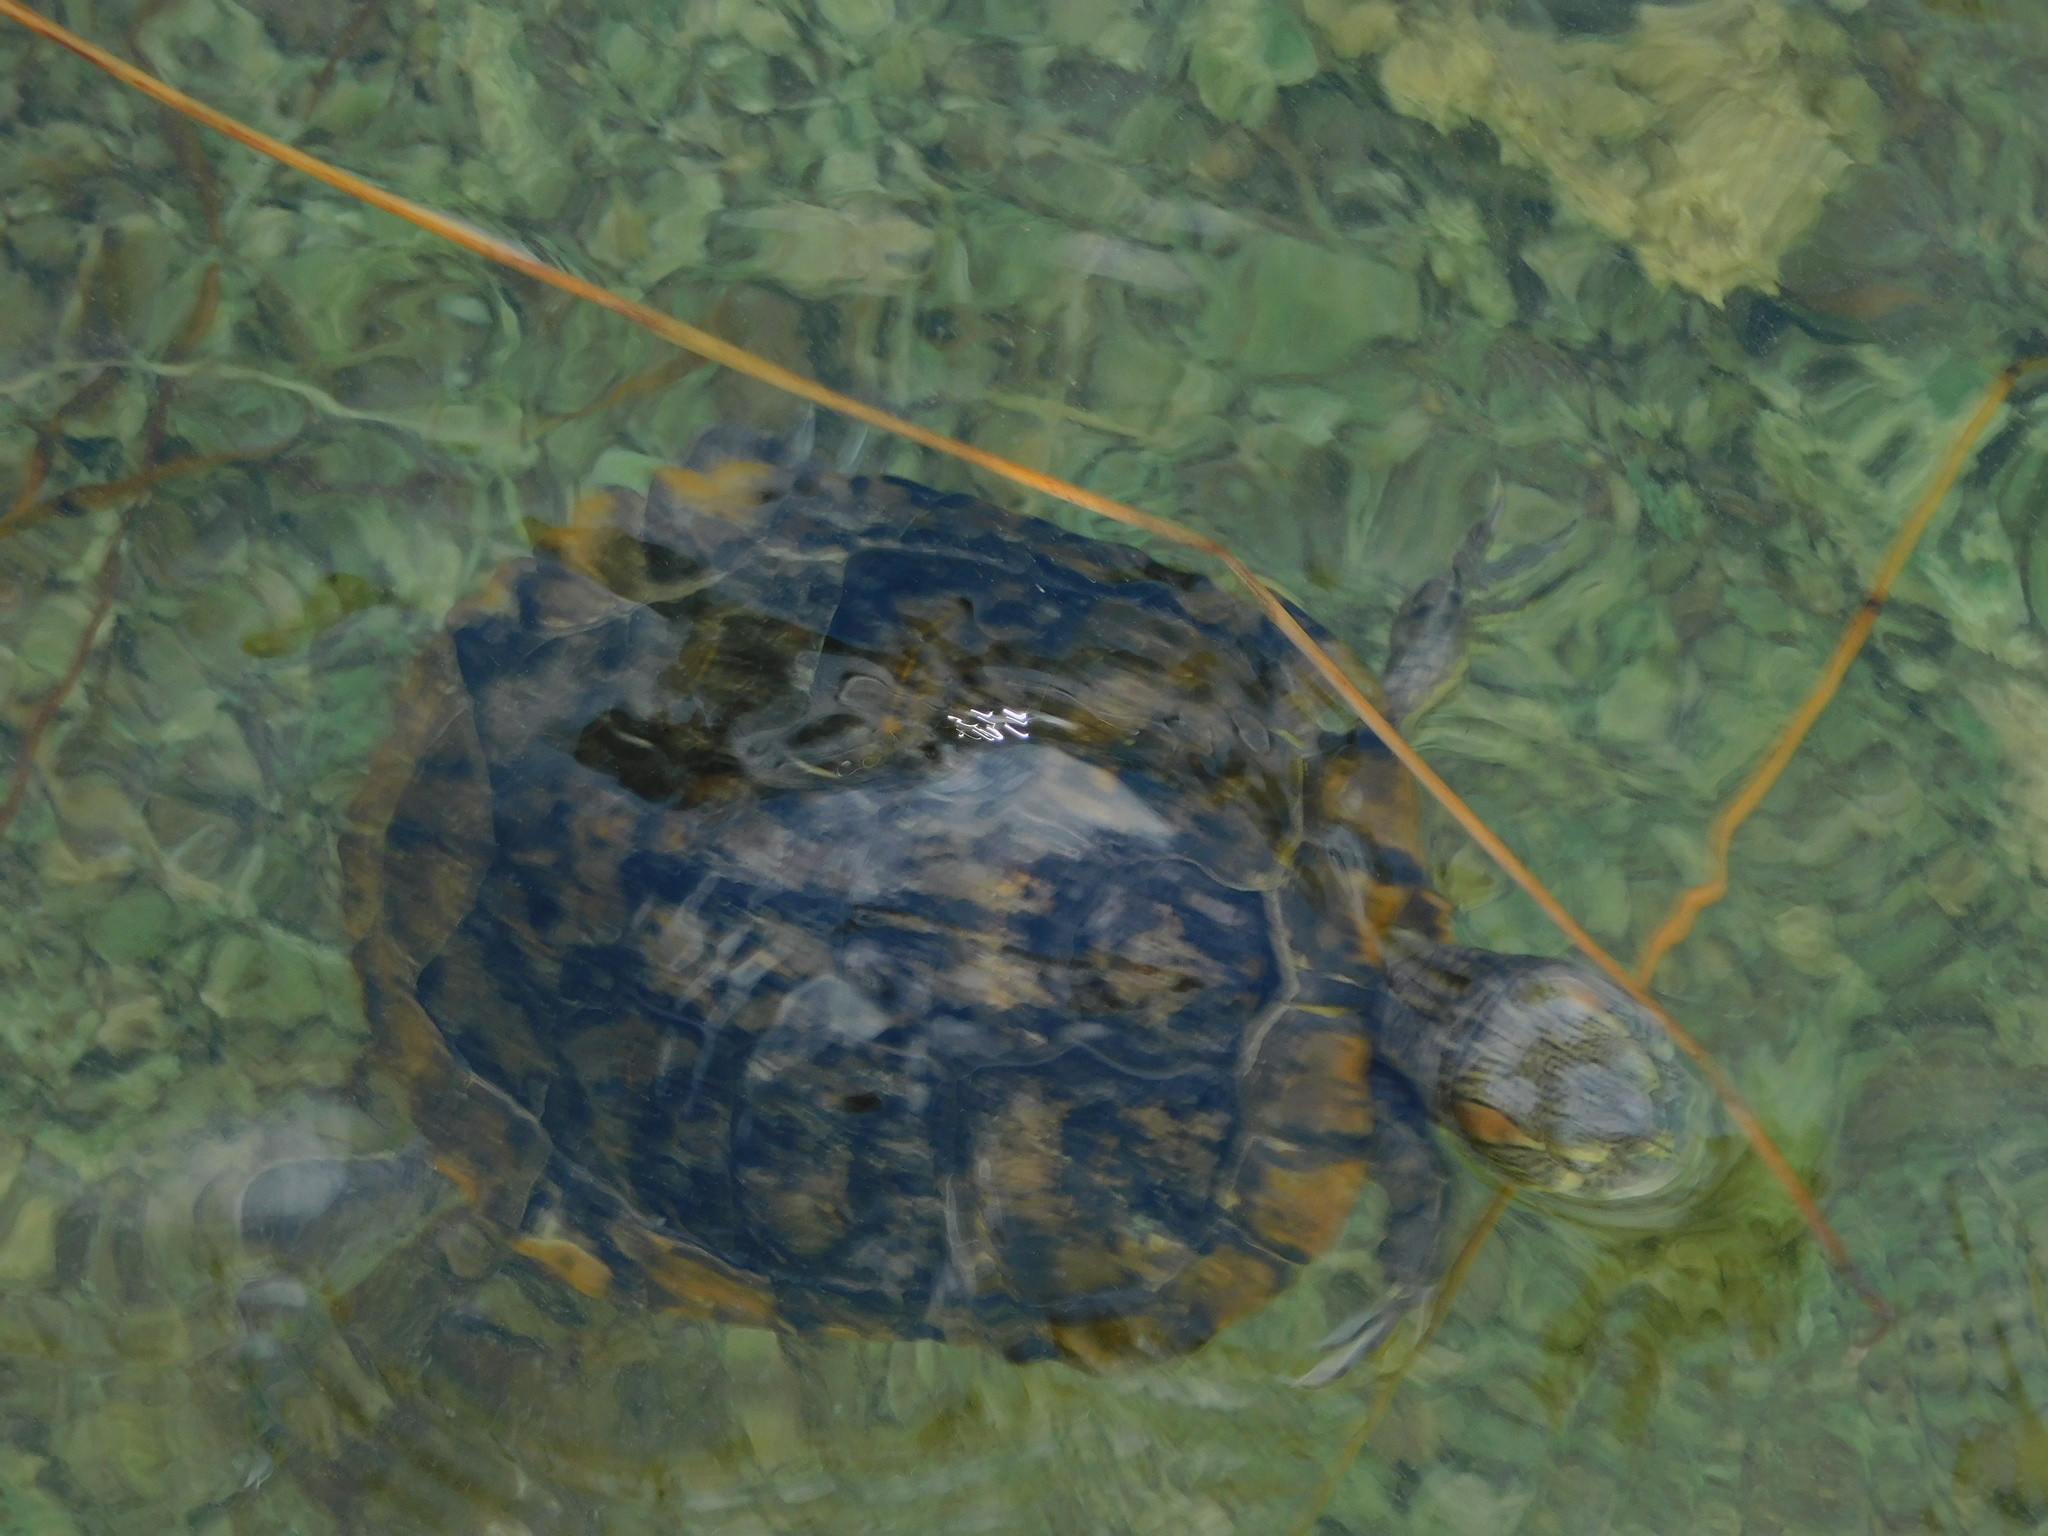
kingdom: Animalia
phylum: Chordata
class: Testudines
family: Emydidae
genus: Trachemys
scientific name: Trachemys scripta
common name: Slider
